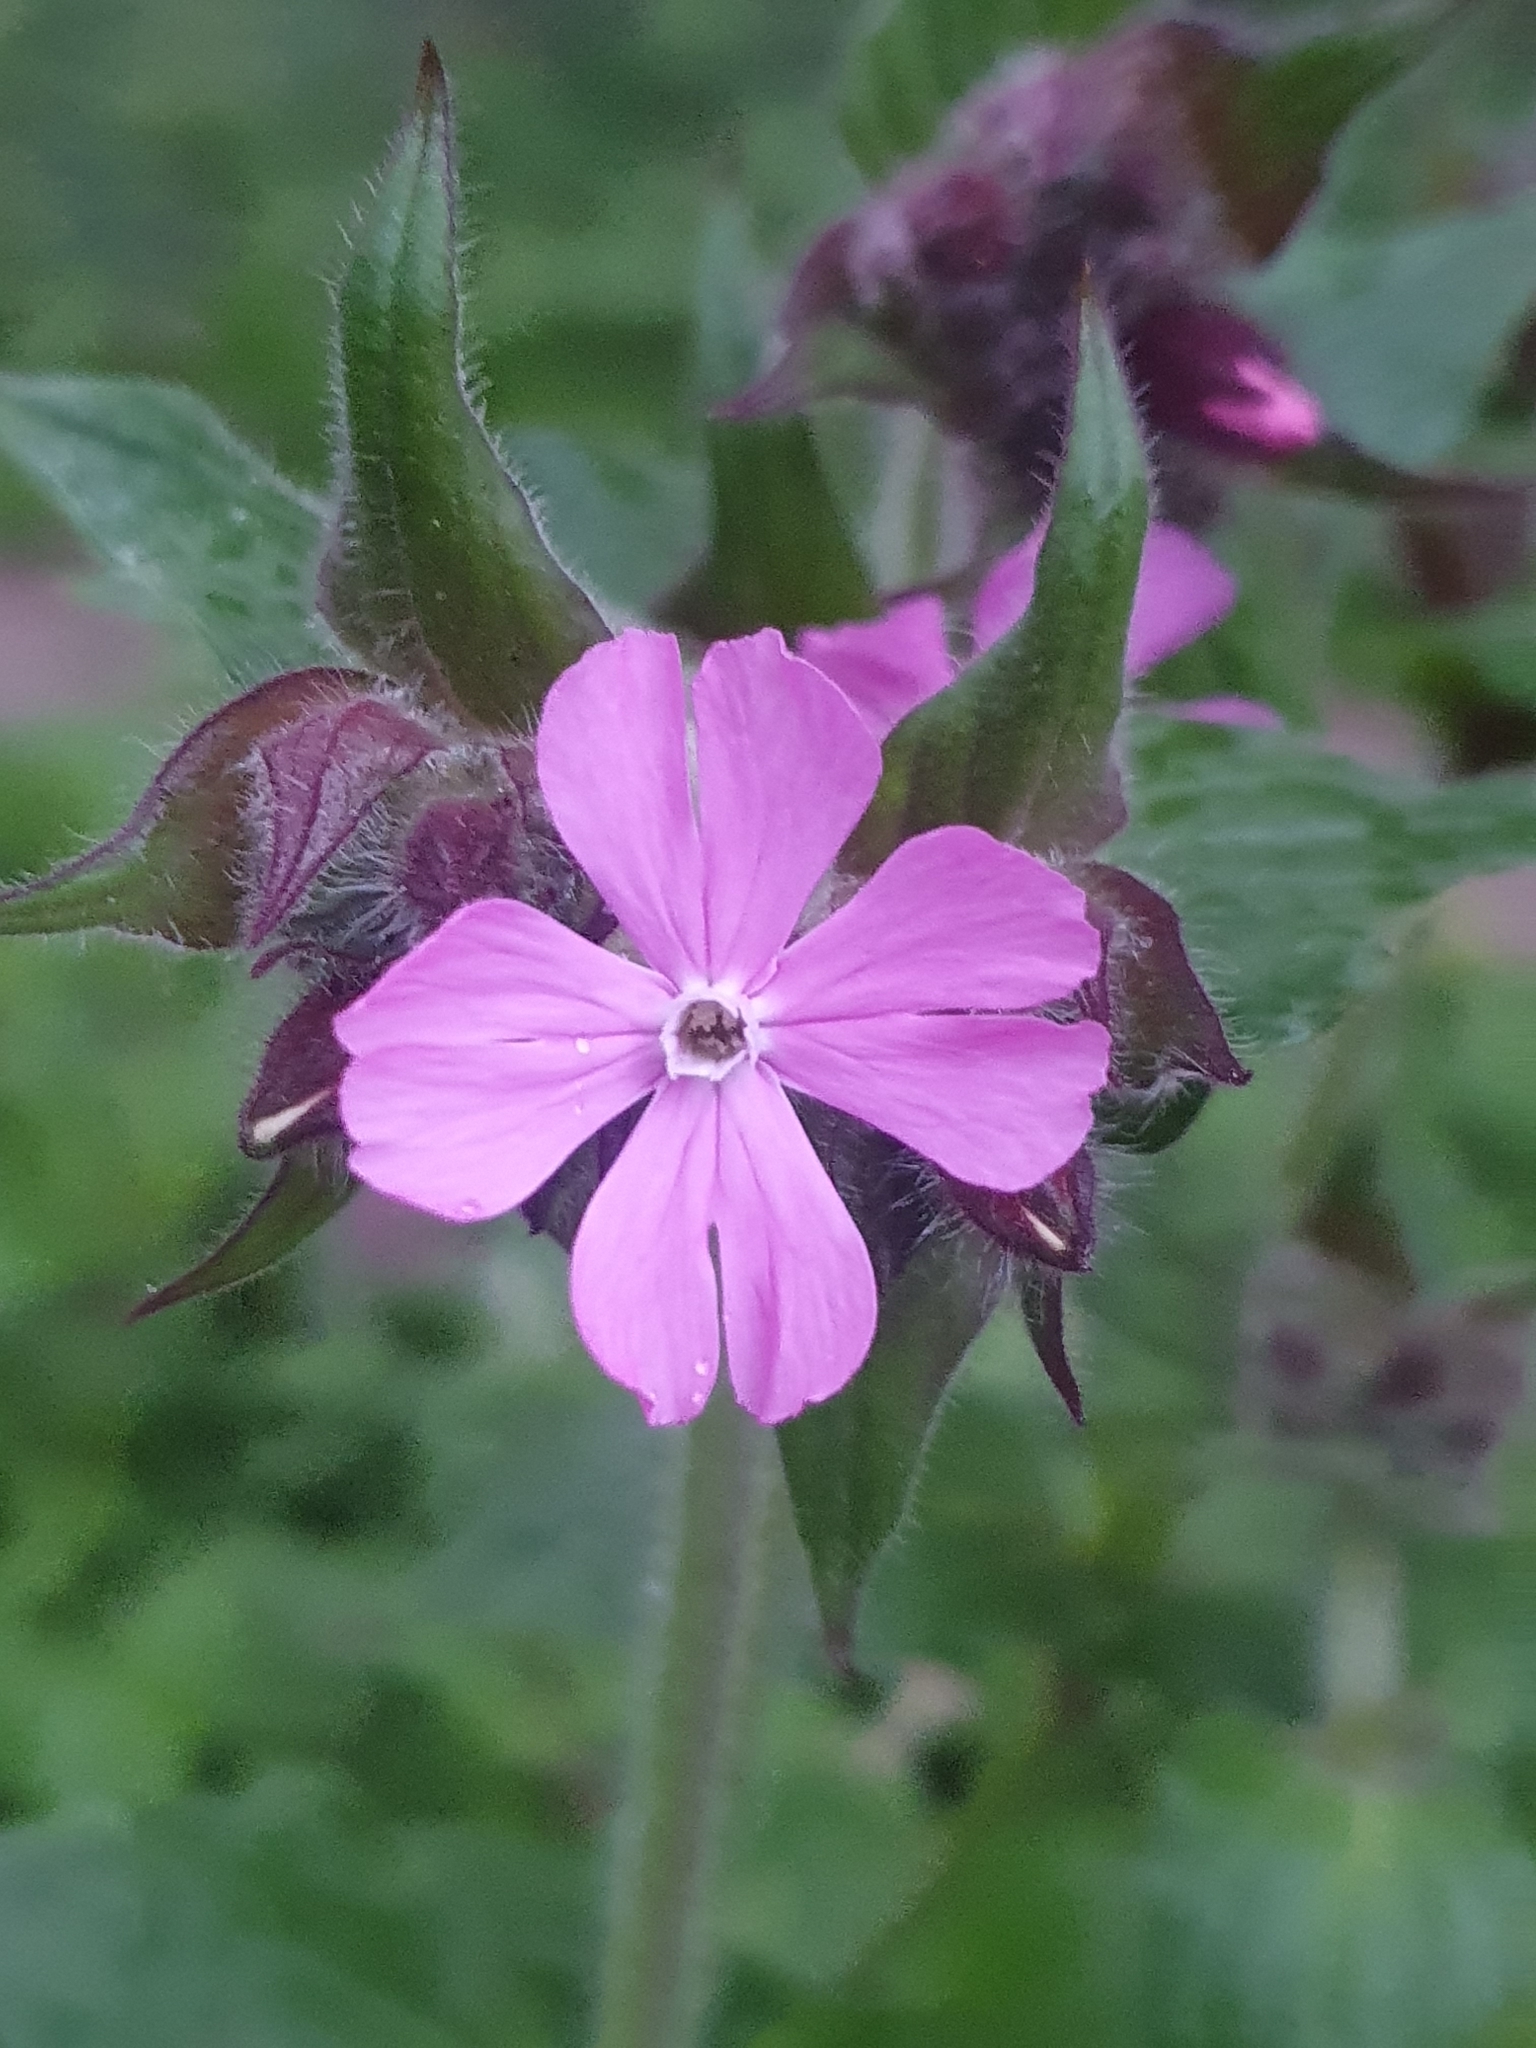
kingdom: Plantae
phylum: Tracheophyta
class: Magnoliopsida
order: Caryophyllales
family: Caryophyllaceae
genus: Silene
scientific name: Silene dioica
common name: Red campion
